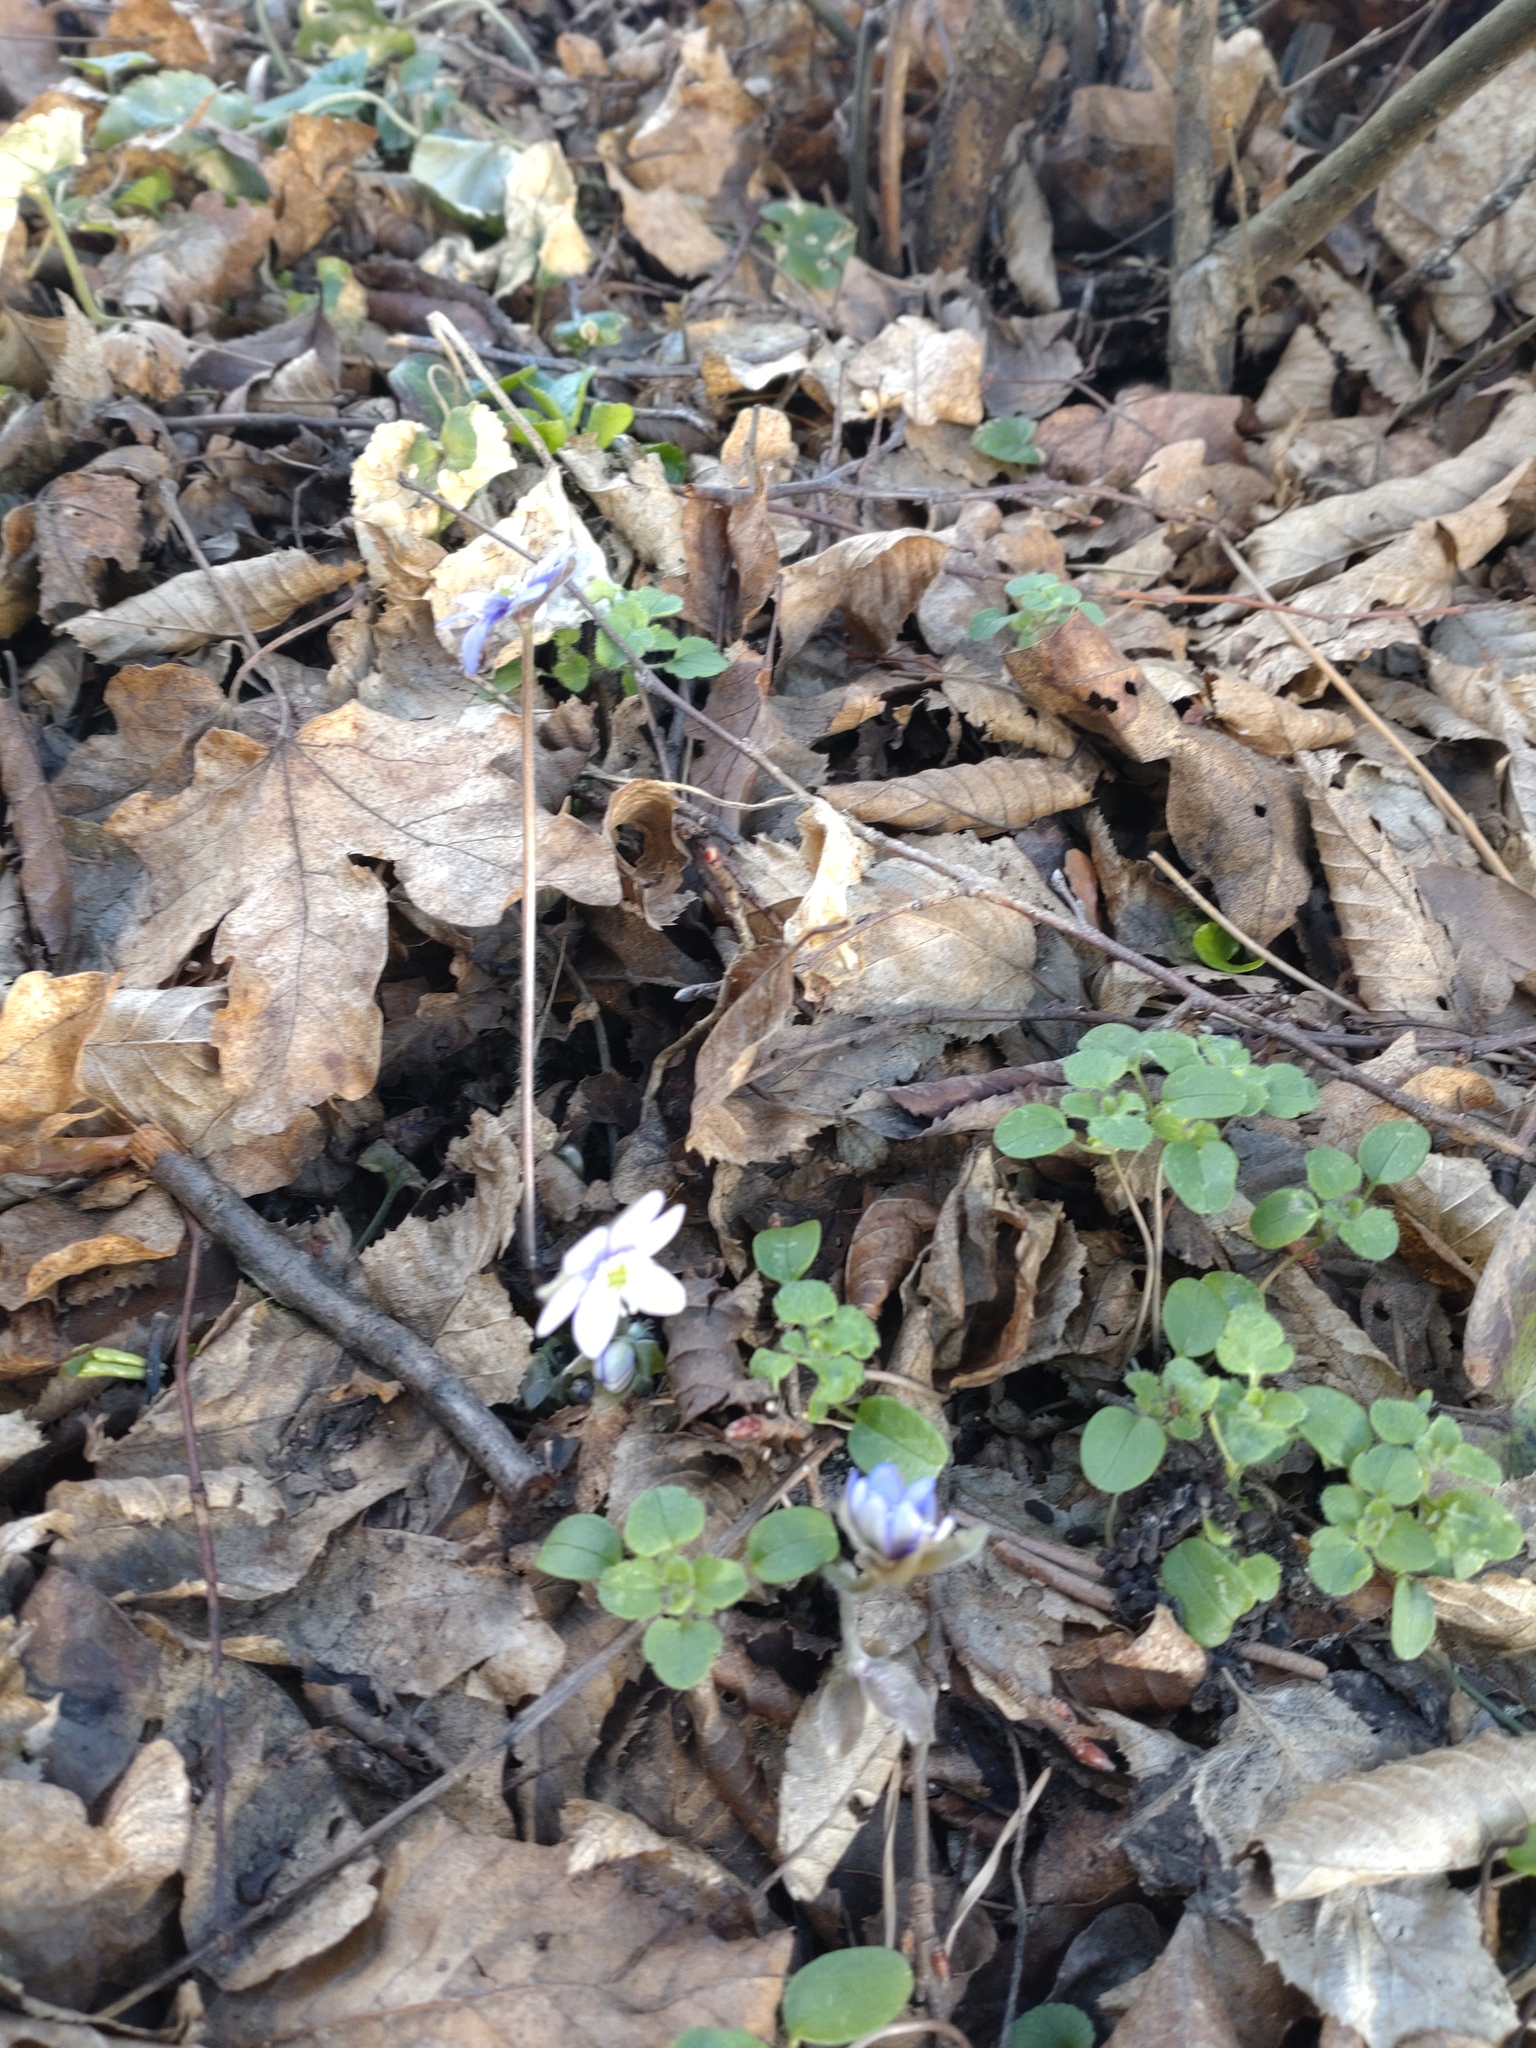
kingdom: Plantae
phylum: Tracheophyta
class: Magnoliopsida
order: Ranunculales
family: Ranunculaceae
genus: Hepatica
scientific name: Hepatica nobilis
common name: Liverleaf
